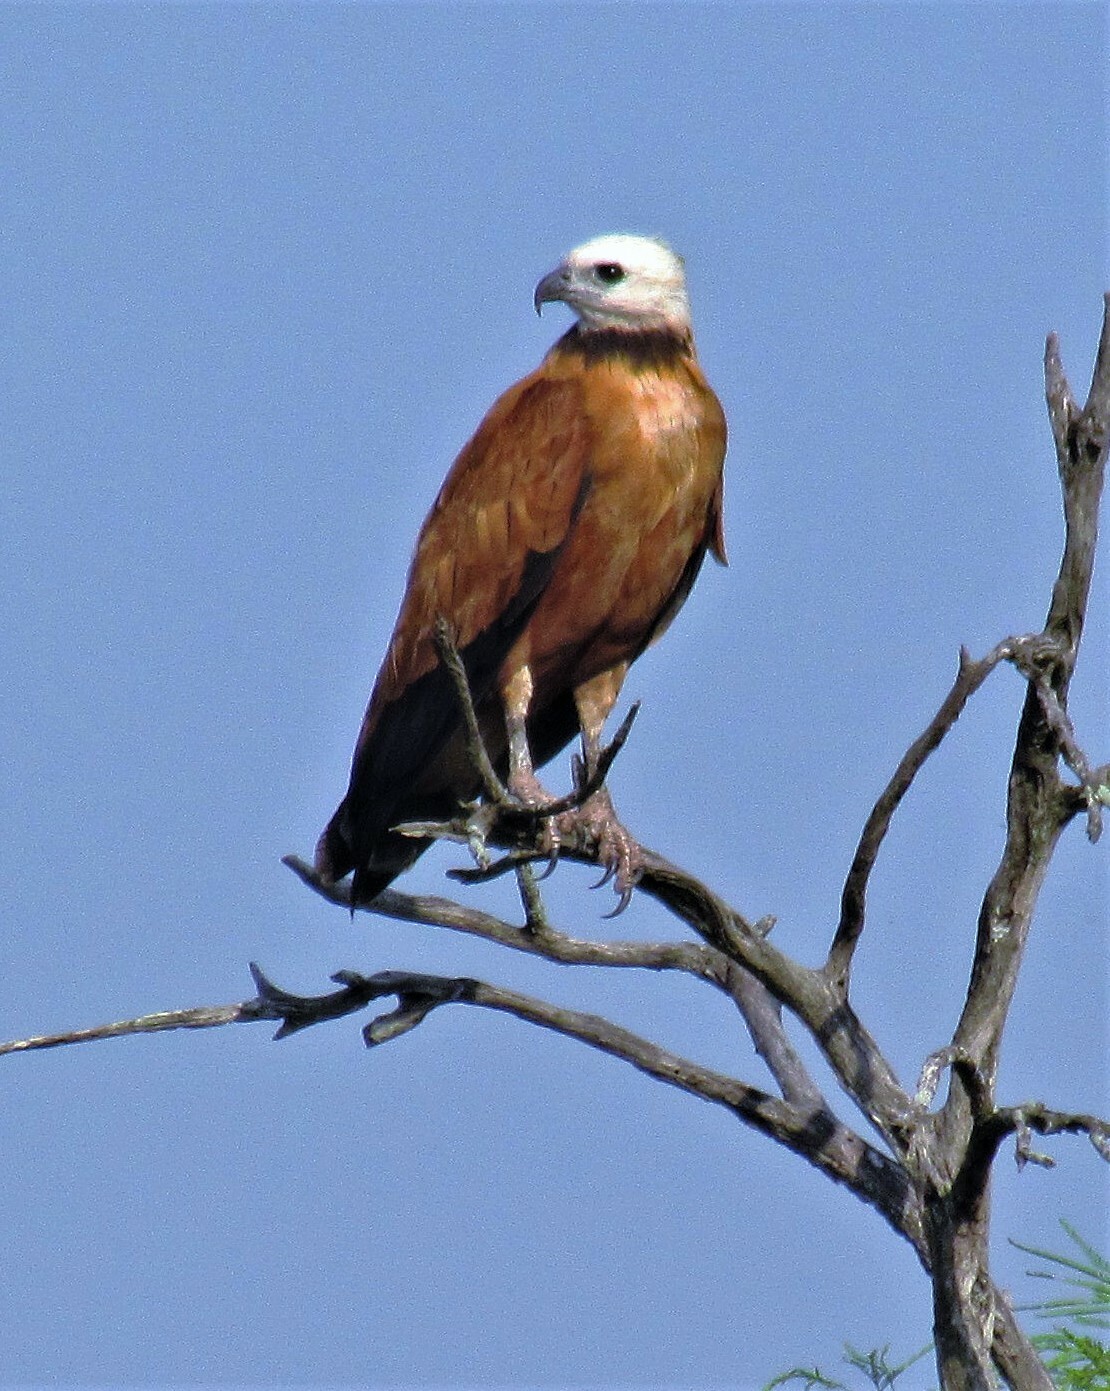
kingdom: Animalia
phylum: Chordata
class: Aves
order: Accipitriformes
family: Accipitridae
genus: Busarellus
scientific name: Busarellus nigricollis
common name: Black-collared hawk
